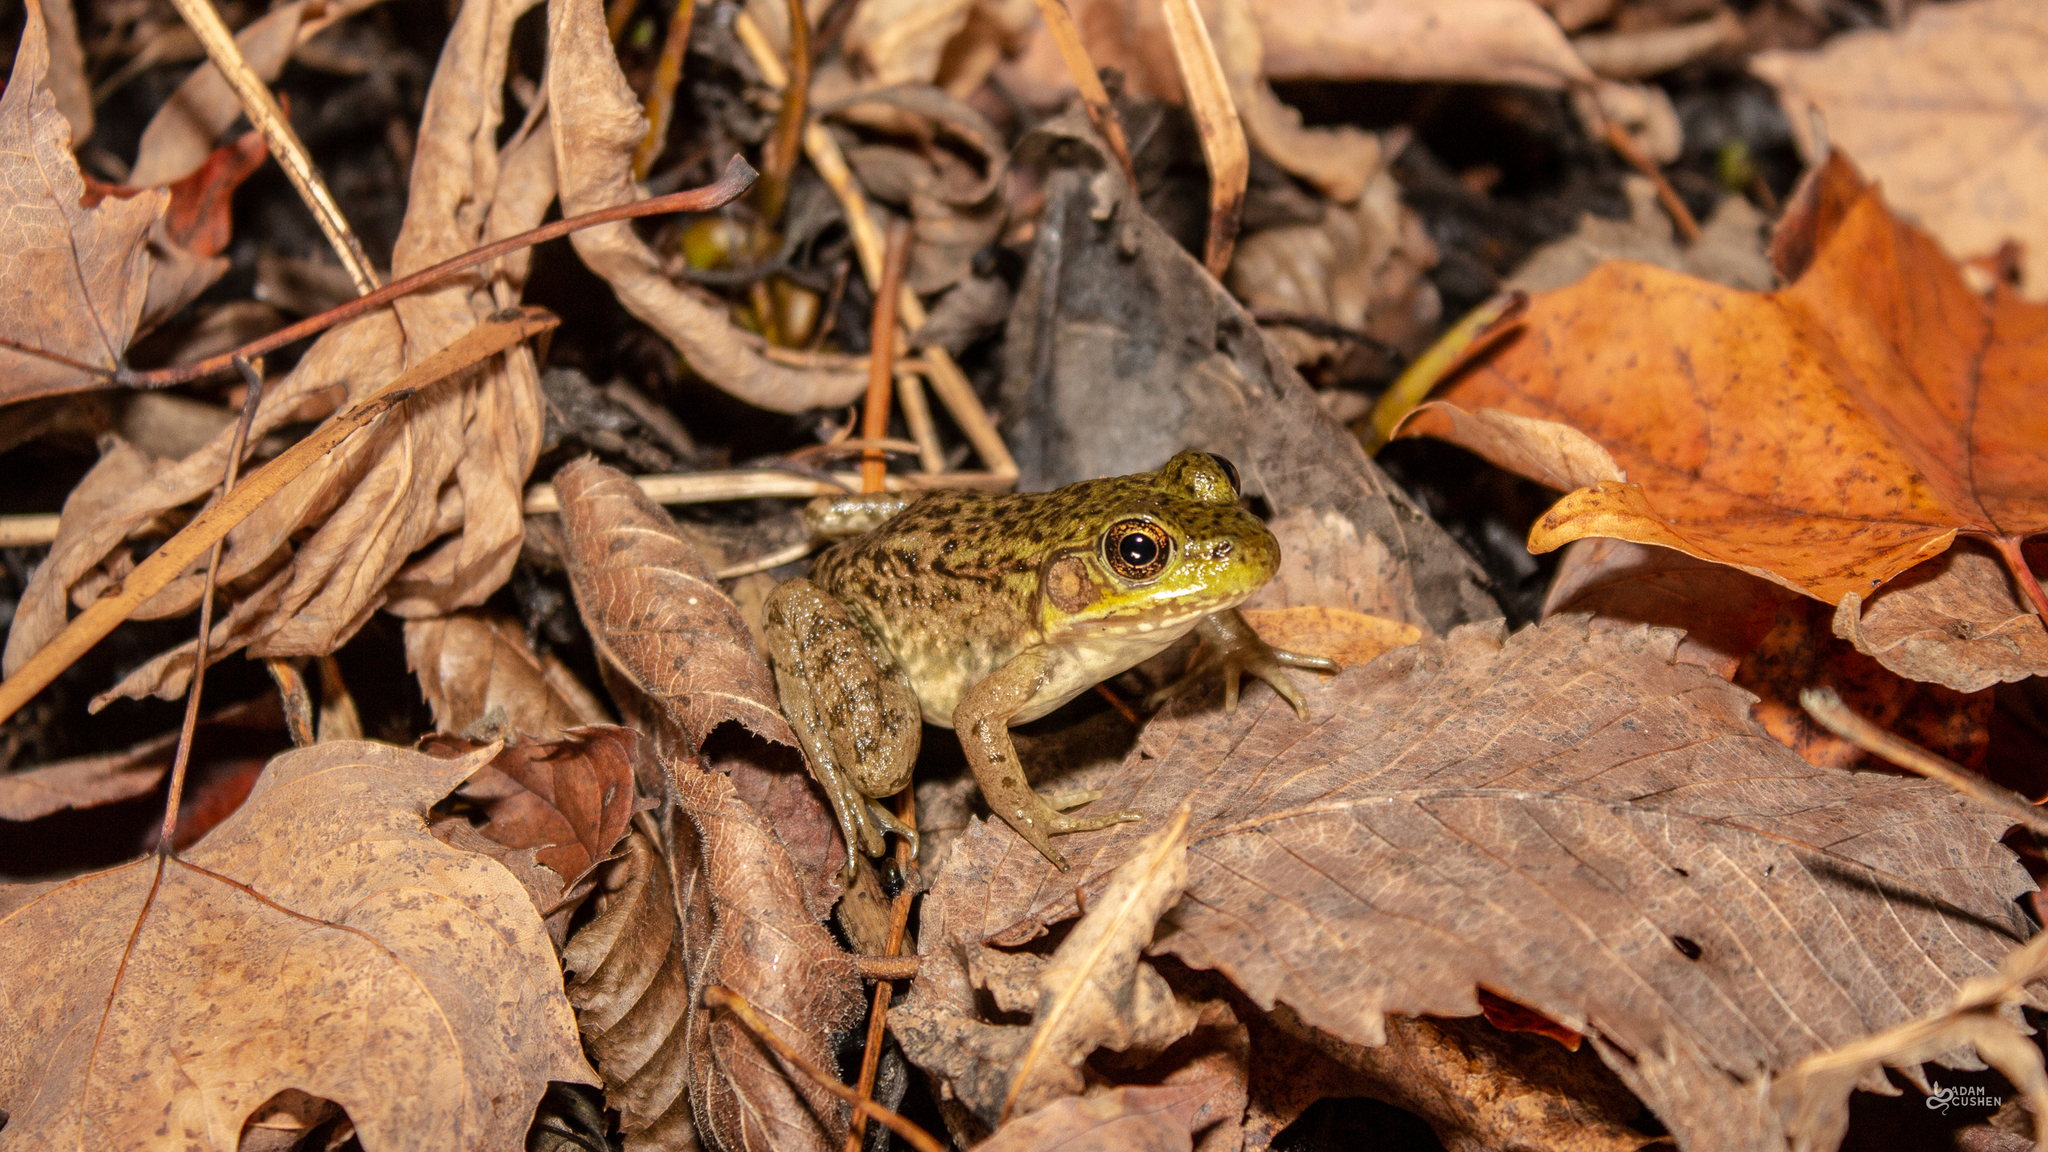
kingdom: Animalia
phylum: Chordata
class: Amphibia
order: Anura
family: Ranidae
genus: Lithobates
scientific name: Lithobates clamitans
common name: Green frog
